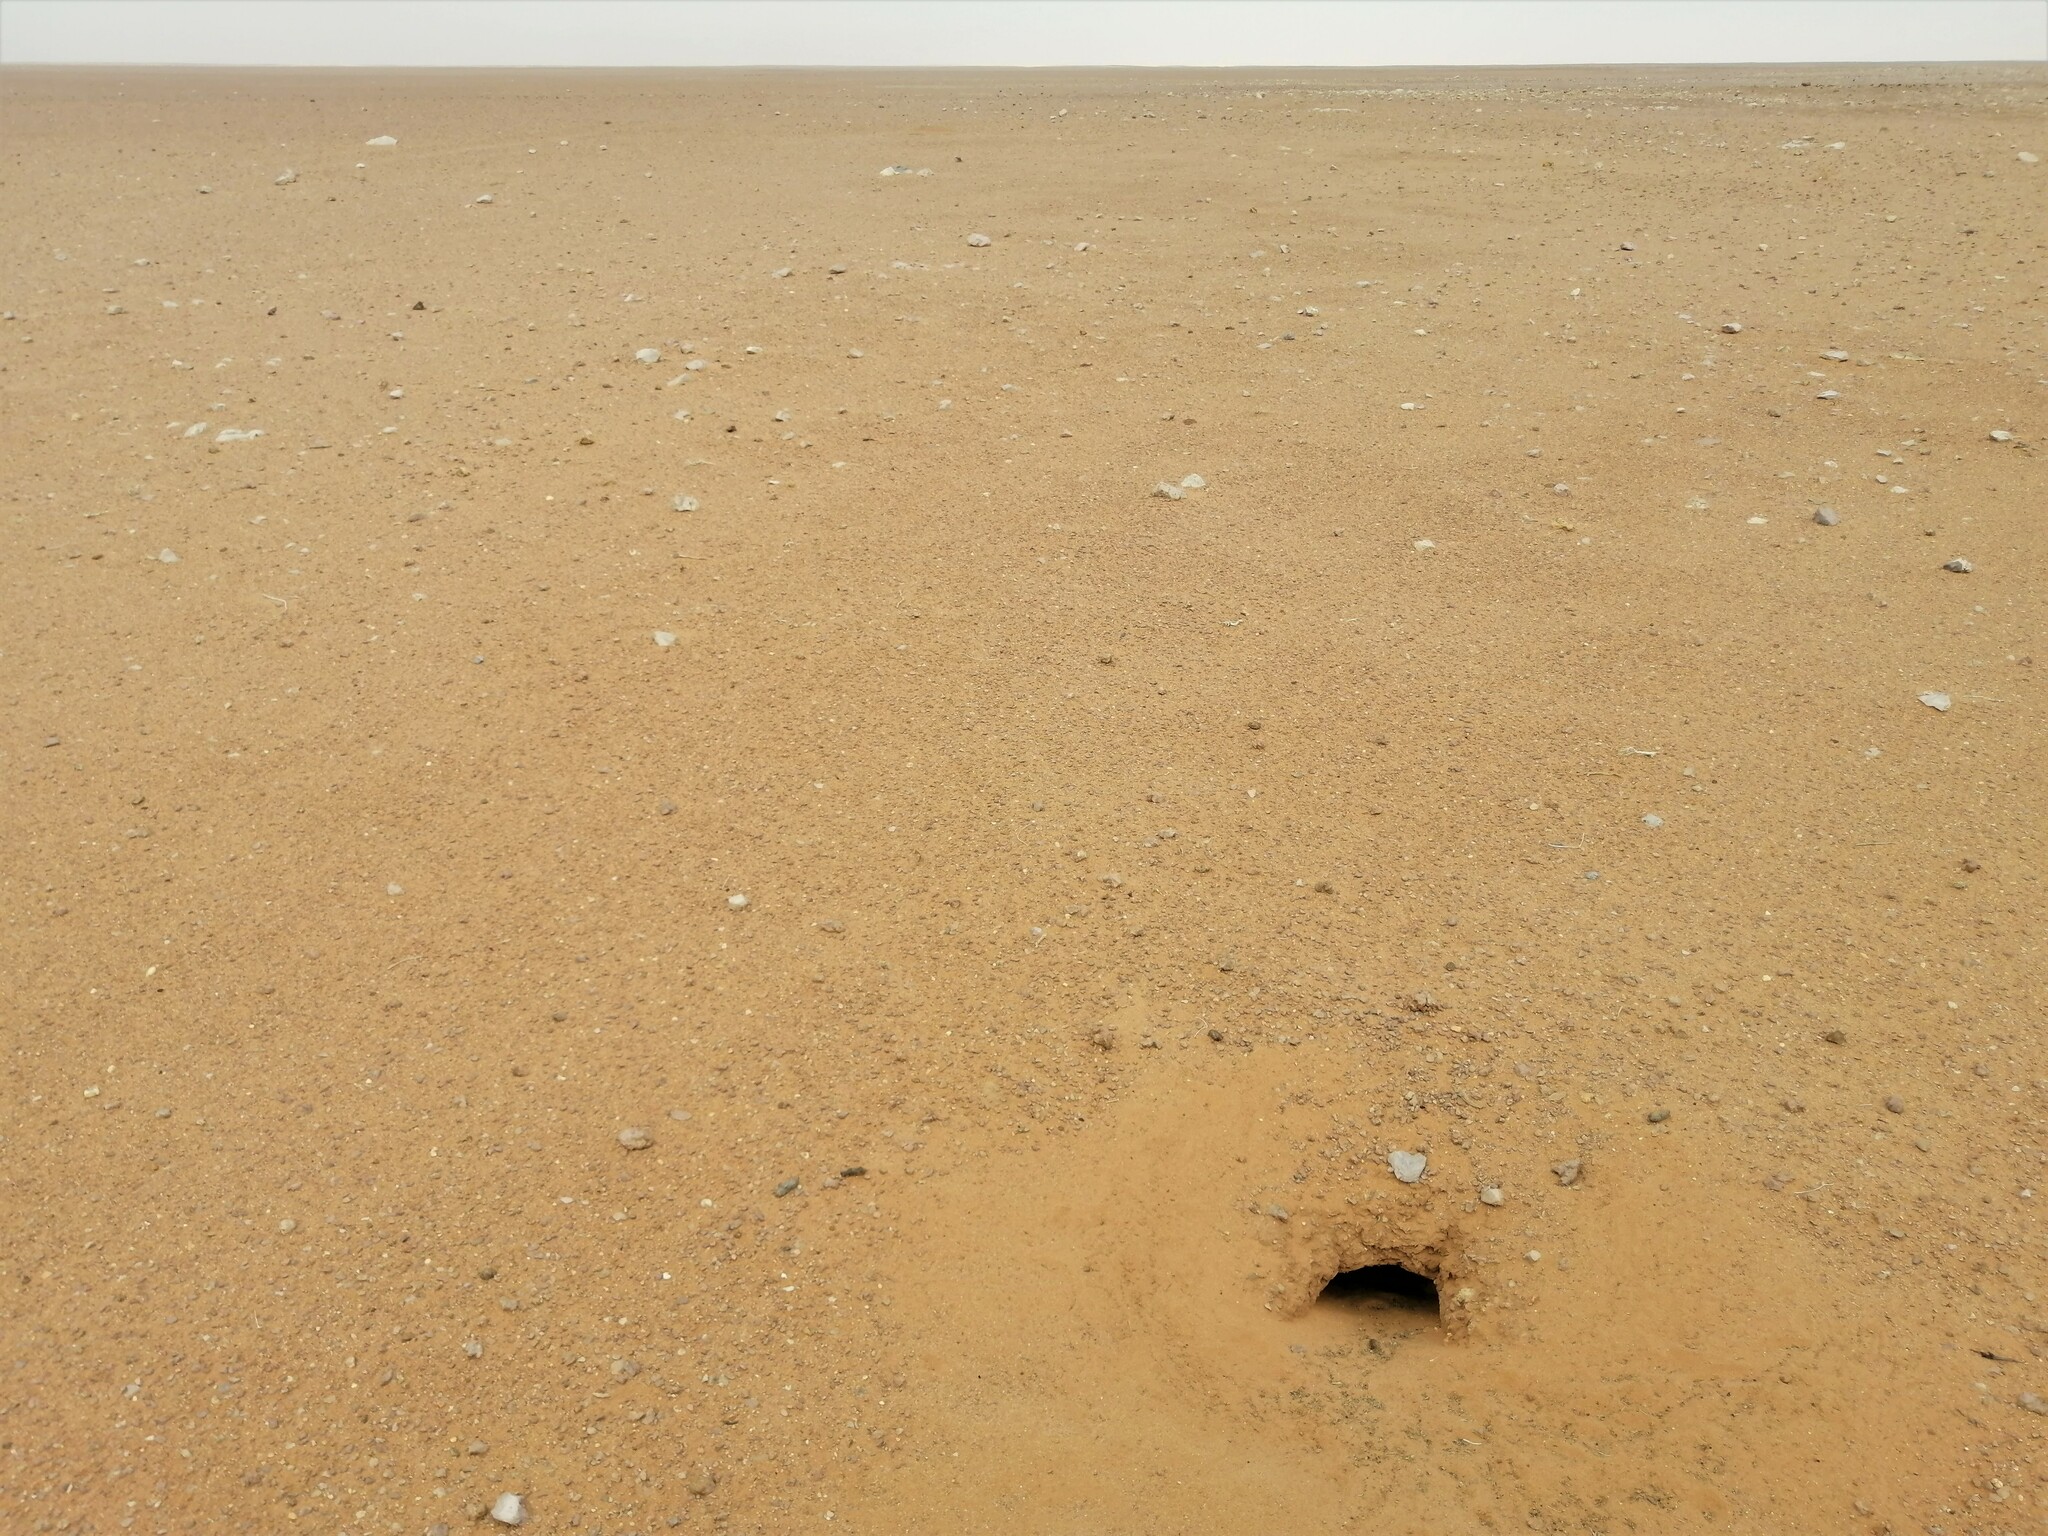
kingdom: Animalia
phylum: Chordata
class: Squamata
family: Agamidae
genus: Uromastyx
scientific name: Uromastyx aegyptia
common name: Egyptian mastigure
